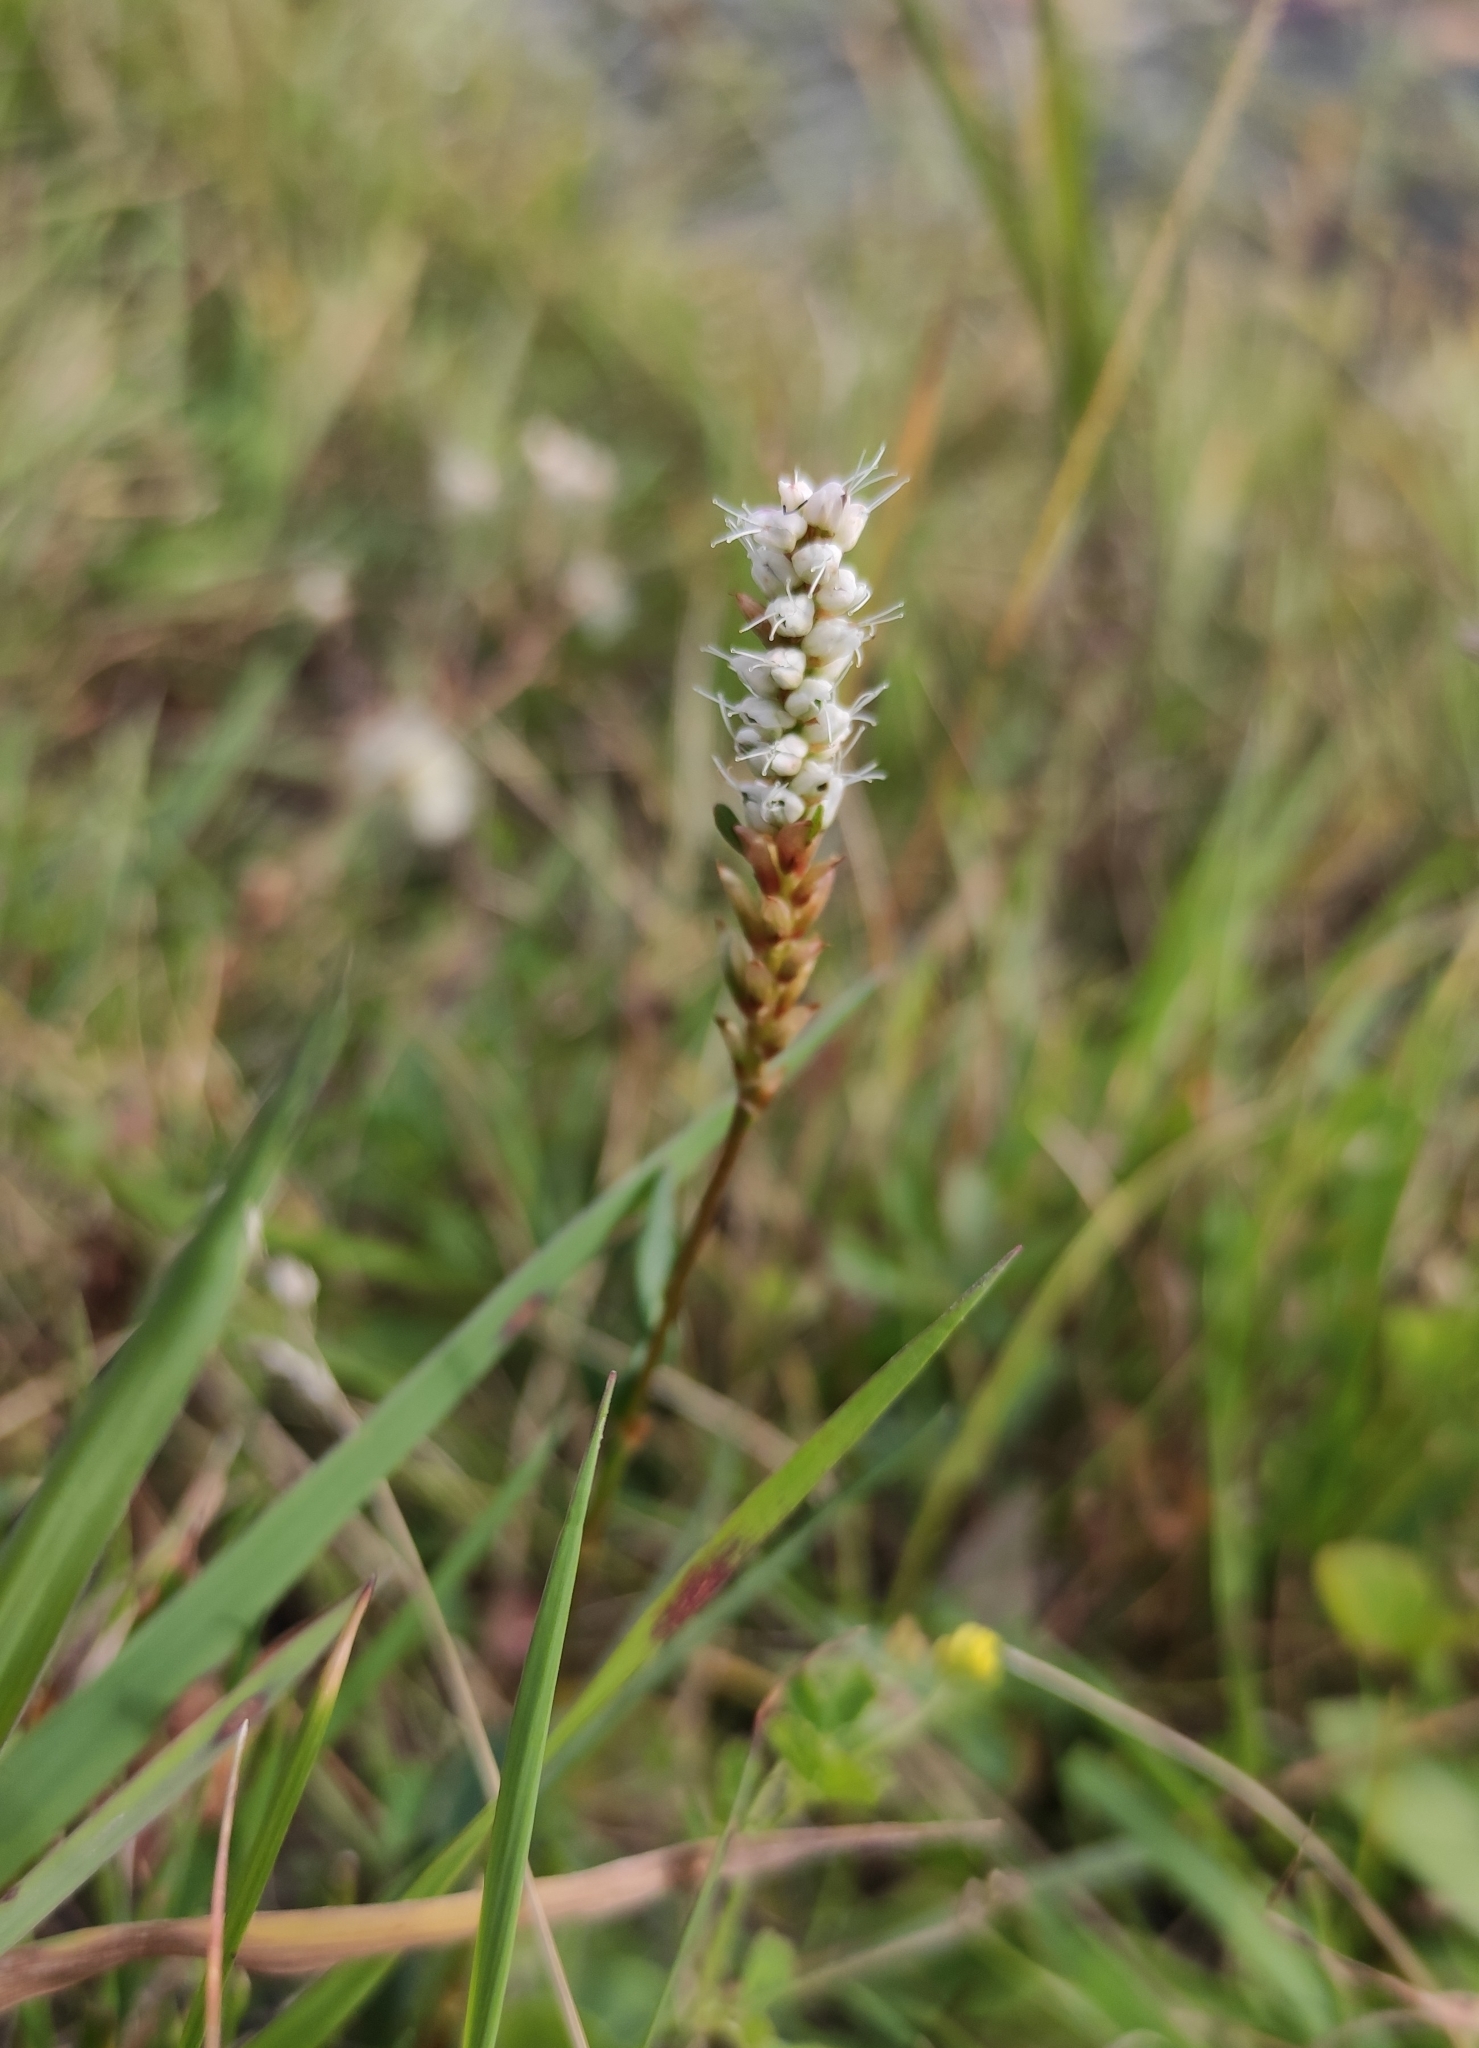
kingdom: Plantae
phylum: Tracheophyta
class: Magnoliopsida
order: Caryophyllales
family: Polygonaceae
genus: Bistorta
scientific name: Bistorta vivipara
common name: Alpine bistort
